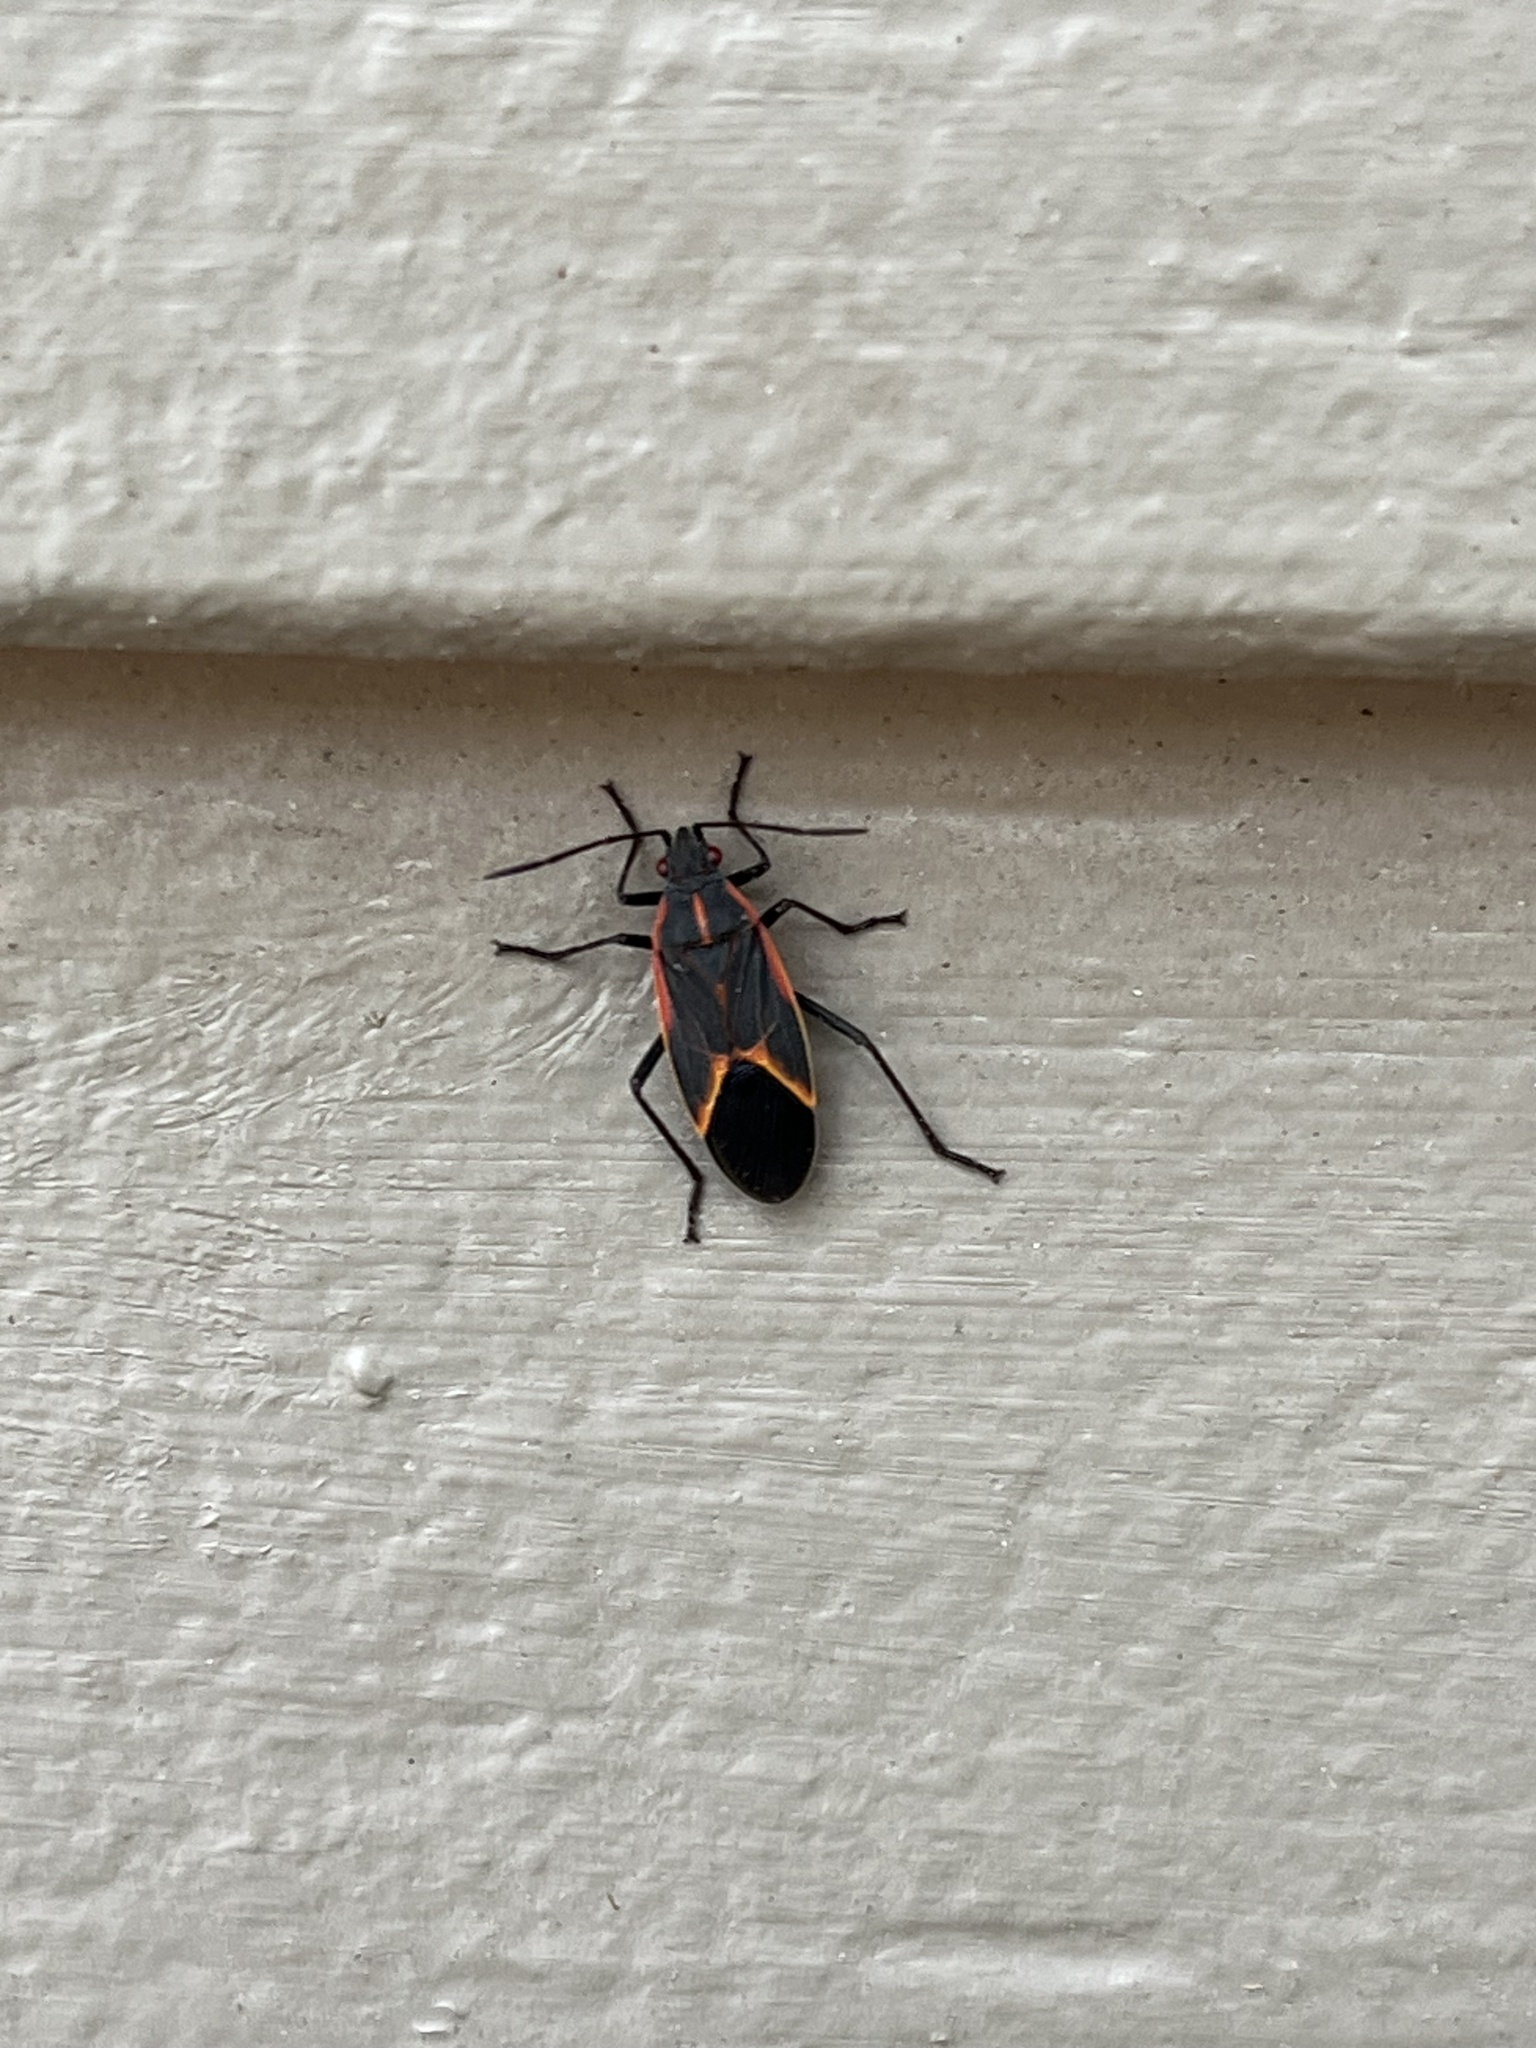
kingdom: Animalia
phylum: Arthropoda
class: Insecta
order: Hemiptera
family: Rhopalidae
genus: Boisea
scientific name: Boisea trivittata
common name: Boxelder bug
